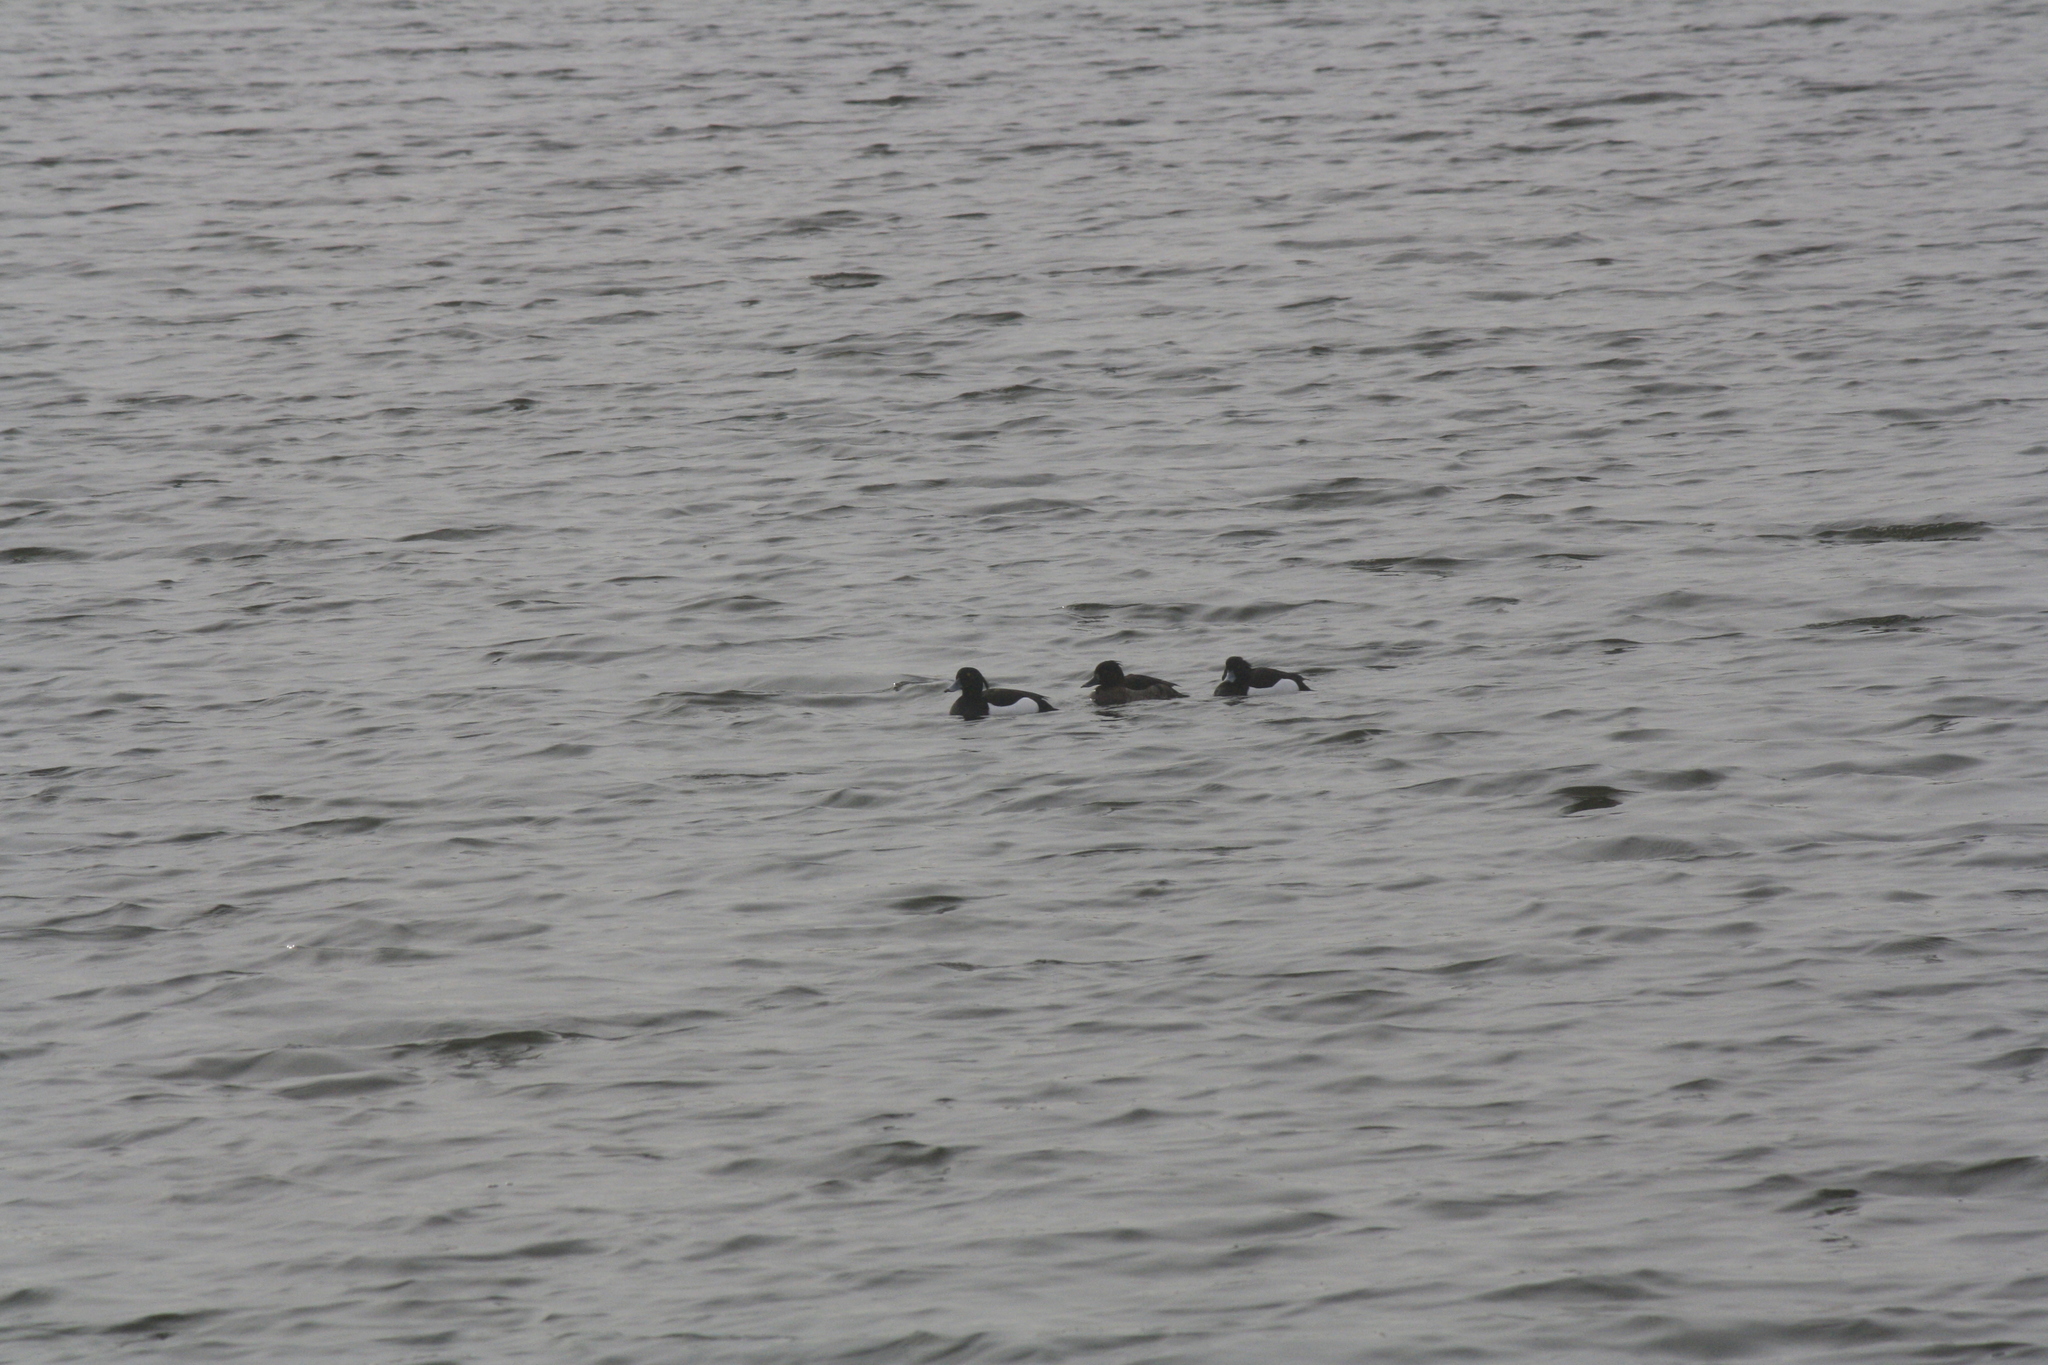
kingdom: Animalia
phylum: Chordata
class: Aves
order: Anseriformes
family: Anatidae
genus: Aythya
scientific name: Aythya fuligula
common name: Tufted duck
